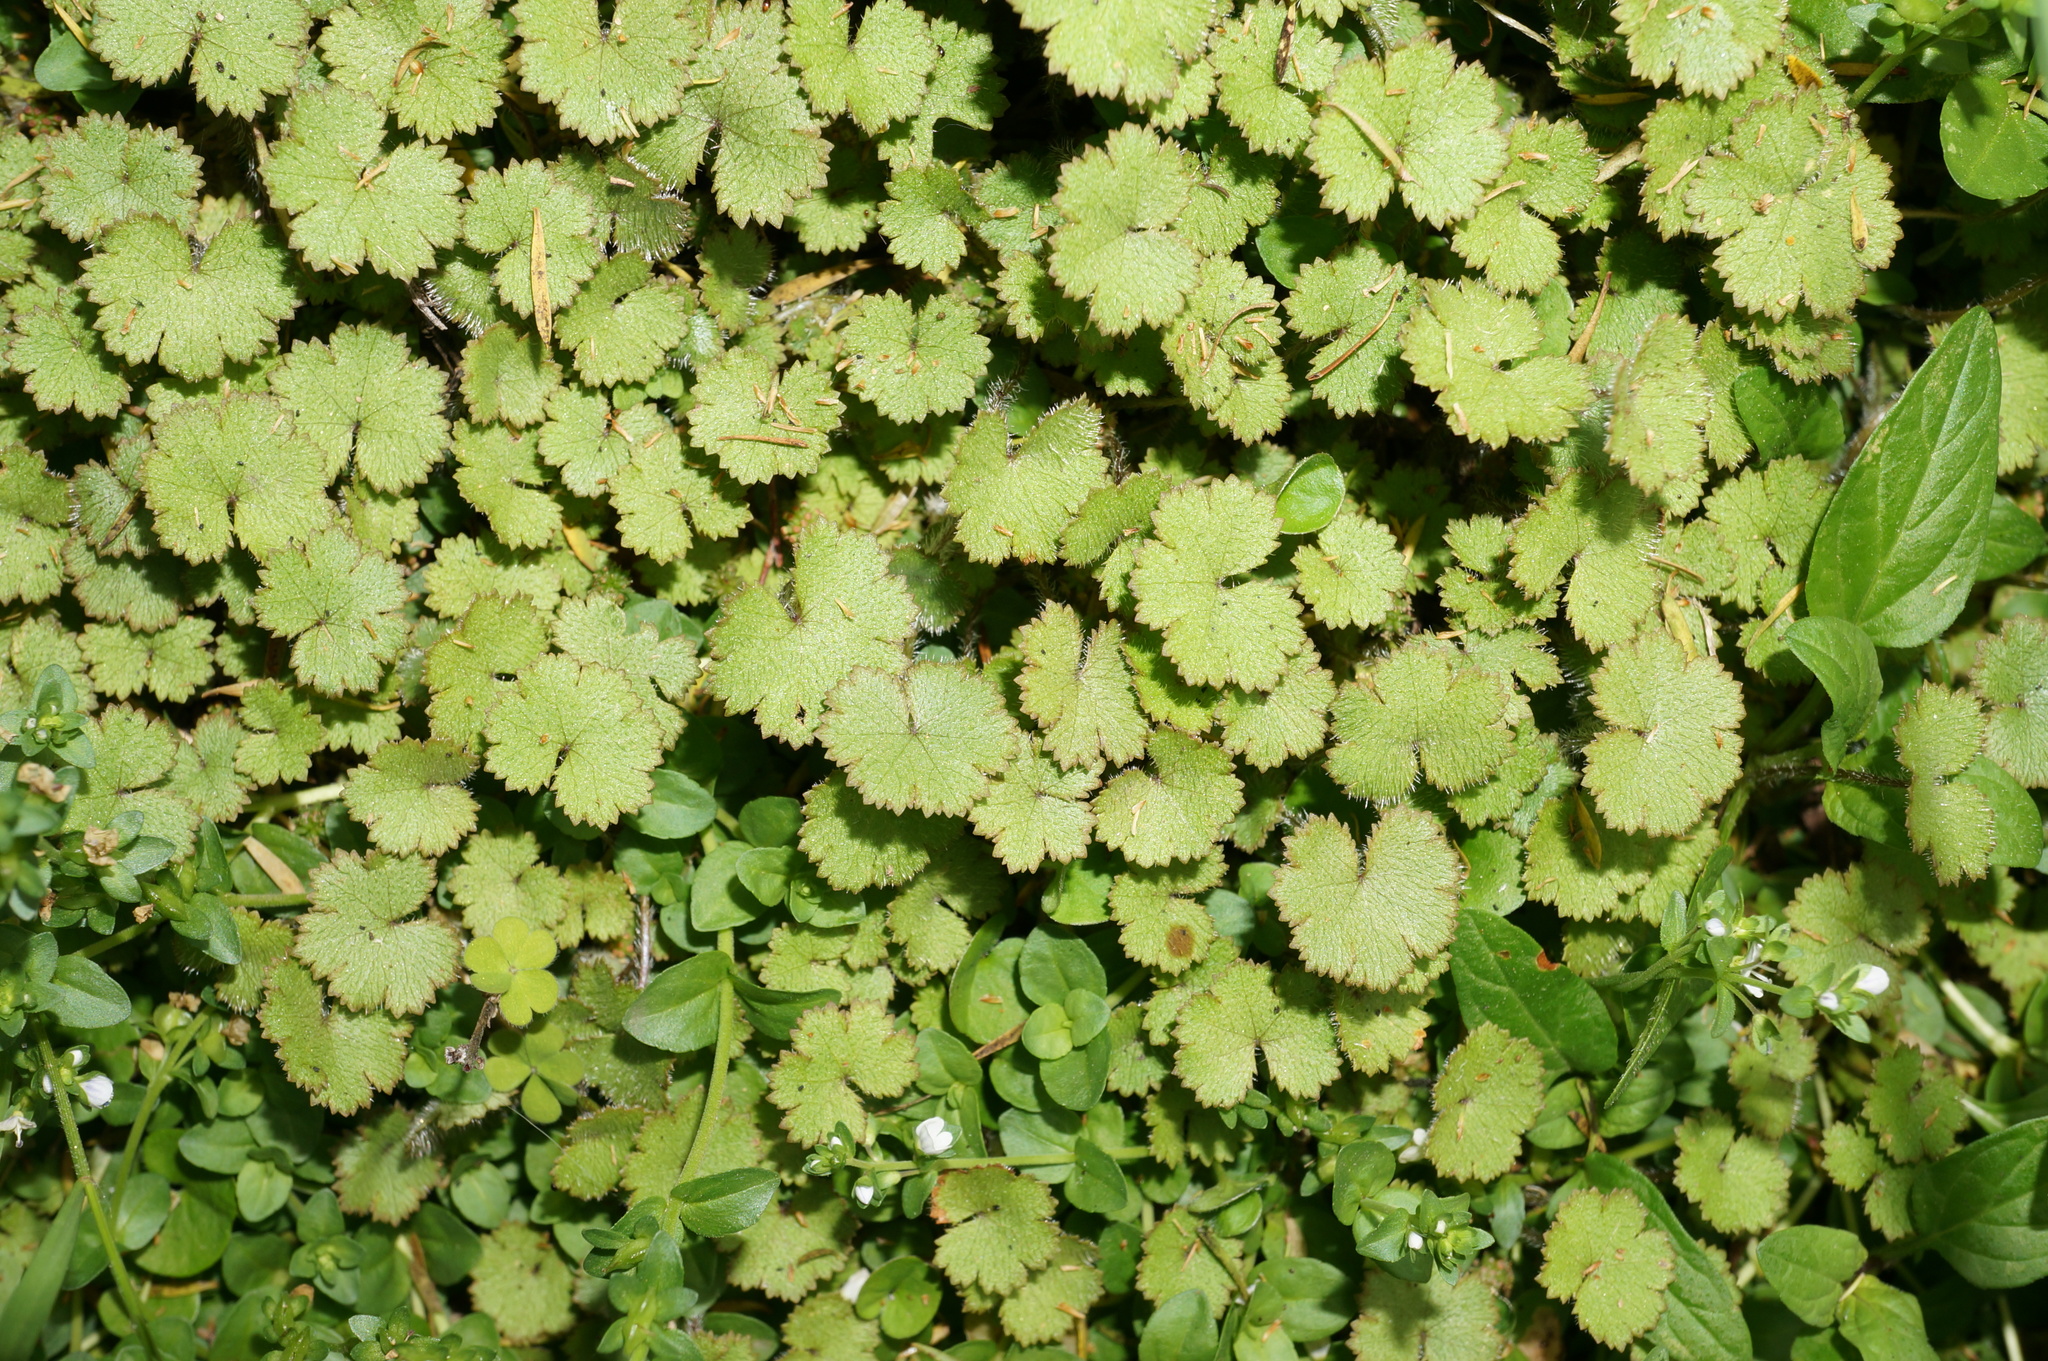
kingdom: Plantae
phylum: Tracheophyta
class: Magnoliopsida
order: Apiales
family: Araliaceae
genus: Hydrocotyle
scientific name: Hydrocotyle moschata
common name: Hairy pennywort
